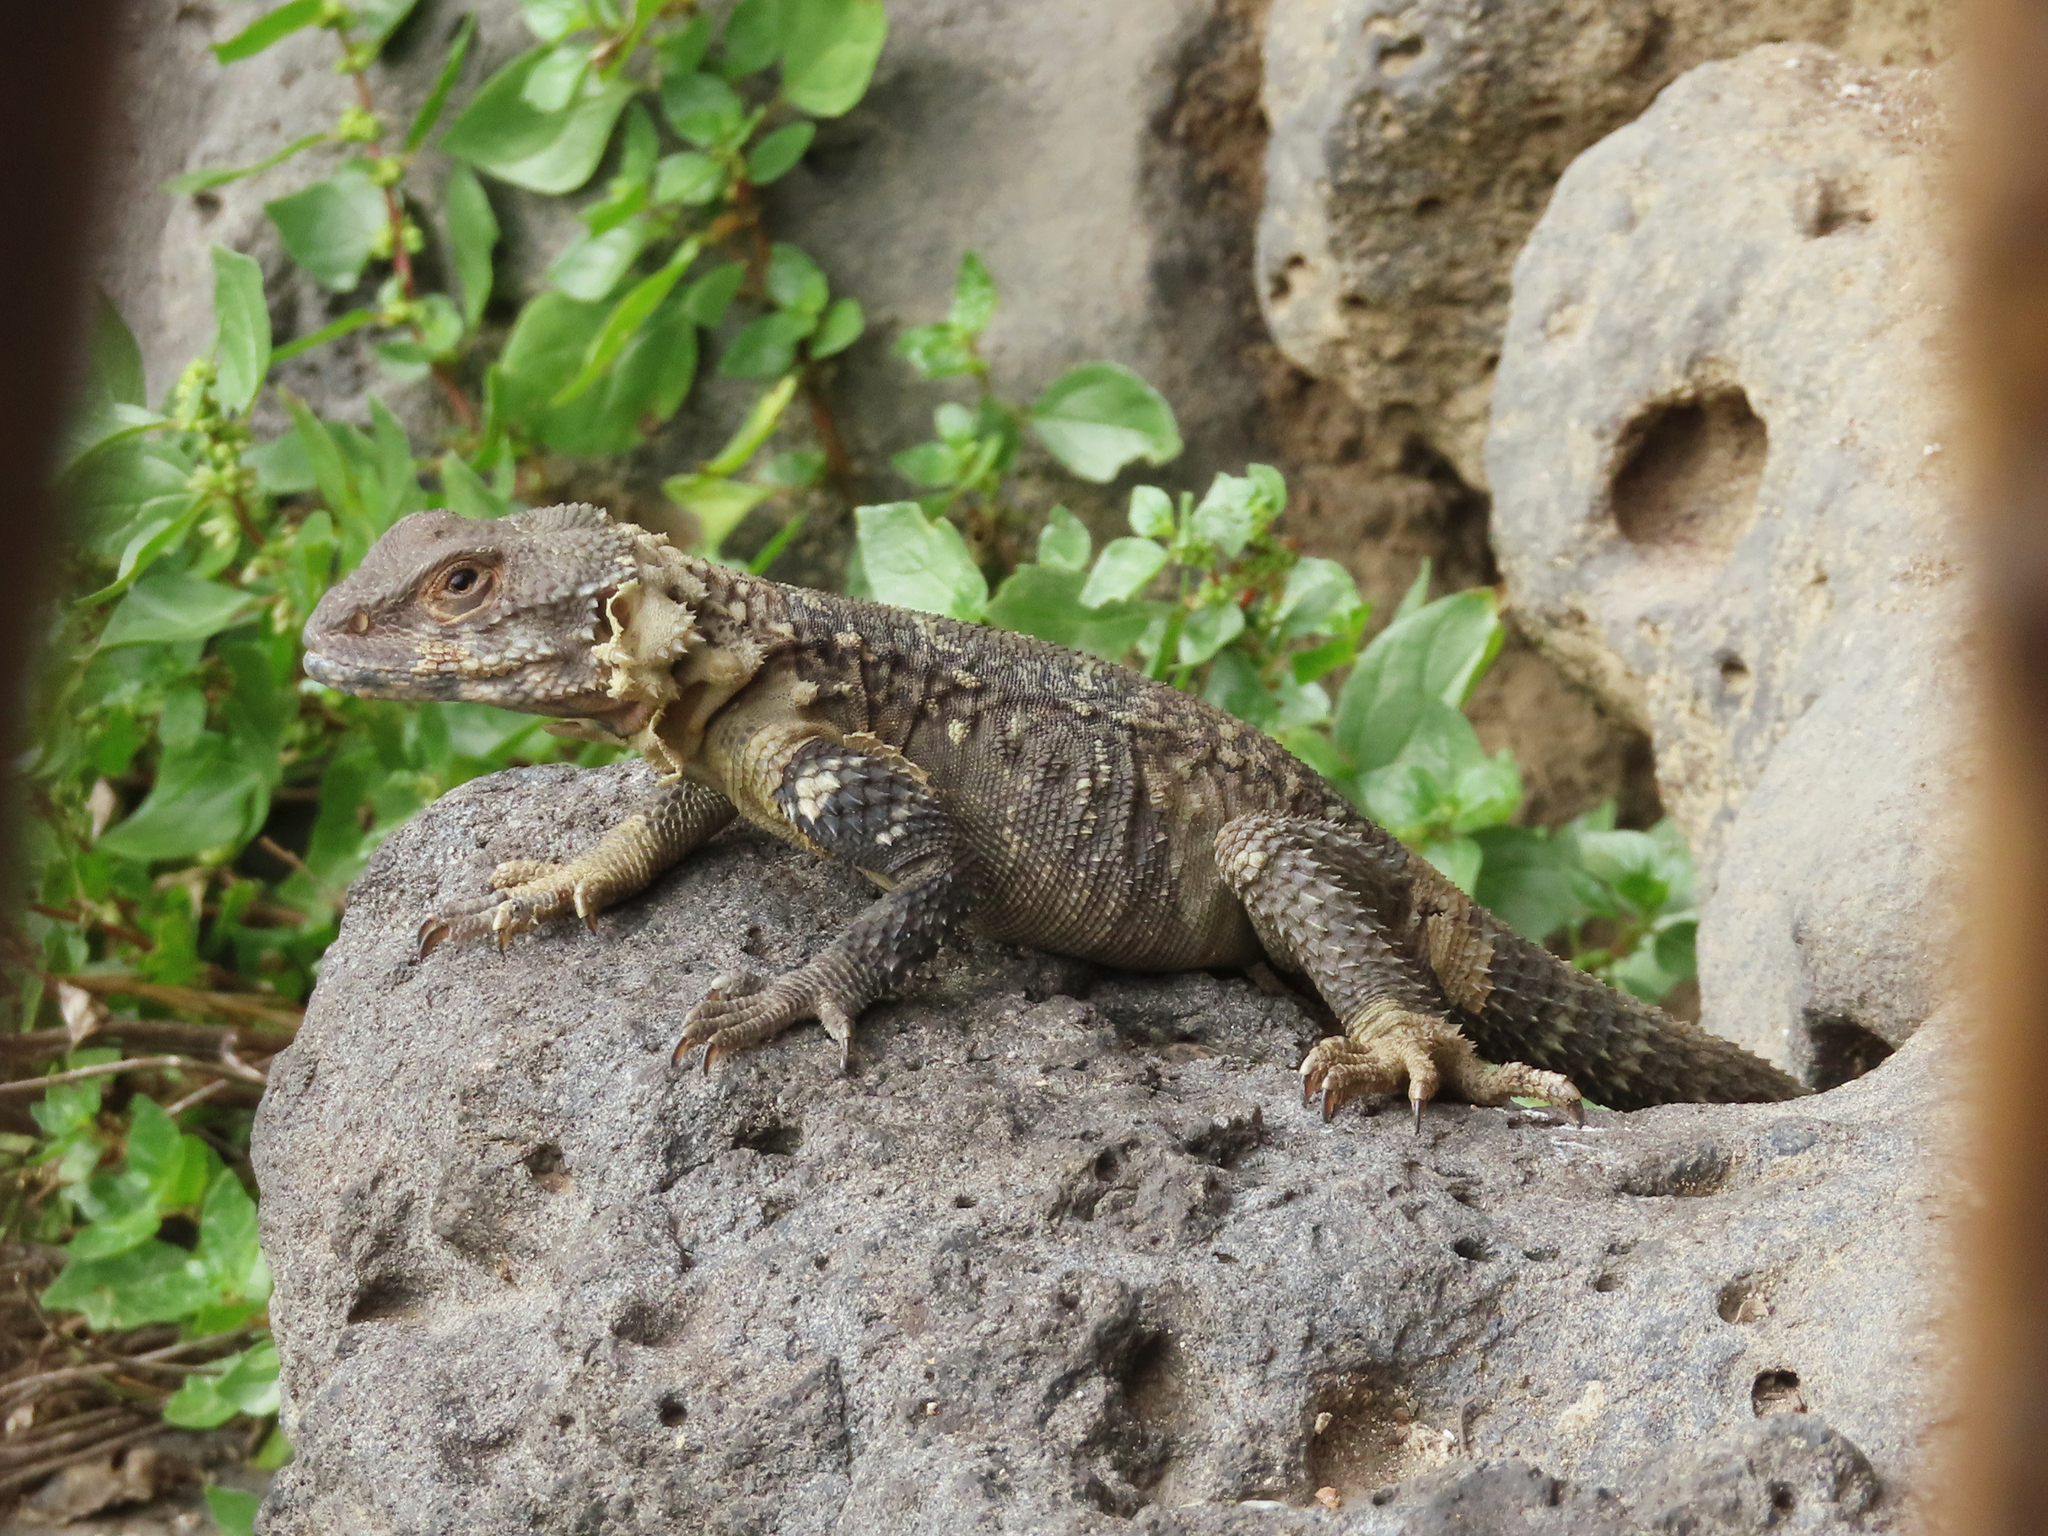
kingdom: Animalia
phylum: Chordata
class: Squamata
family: Agamidae
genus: Paralaudakia
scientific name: Paralaudakia caucasia
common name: Caucasian agama
